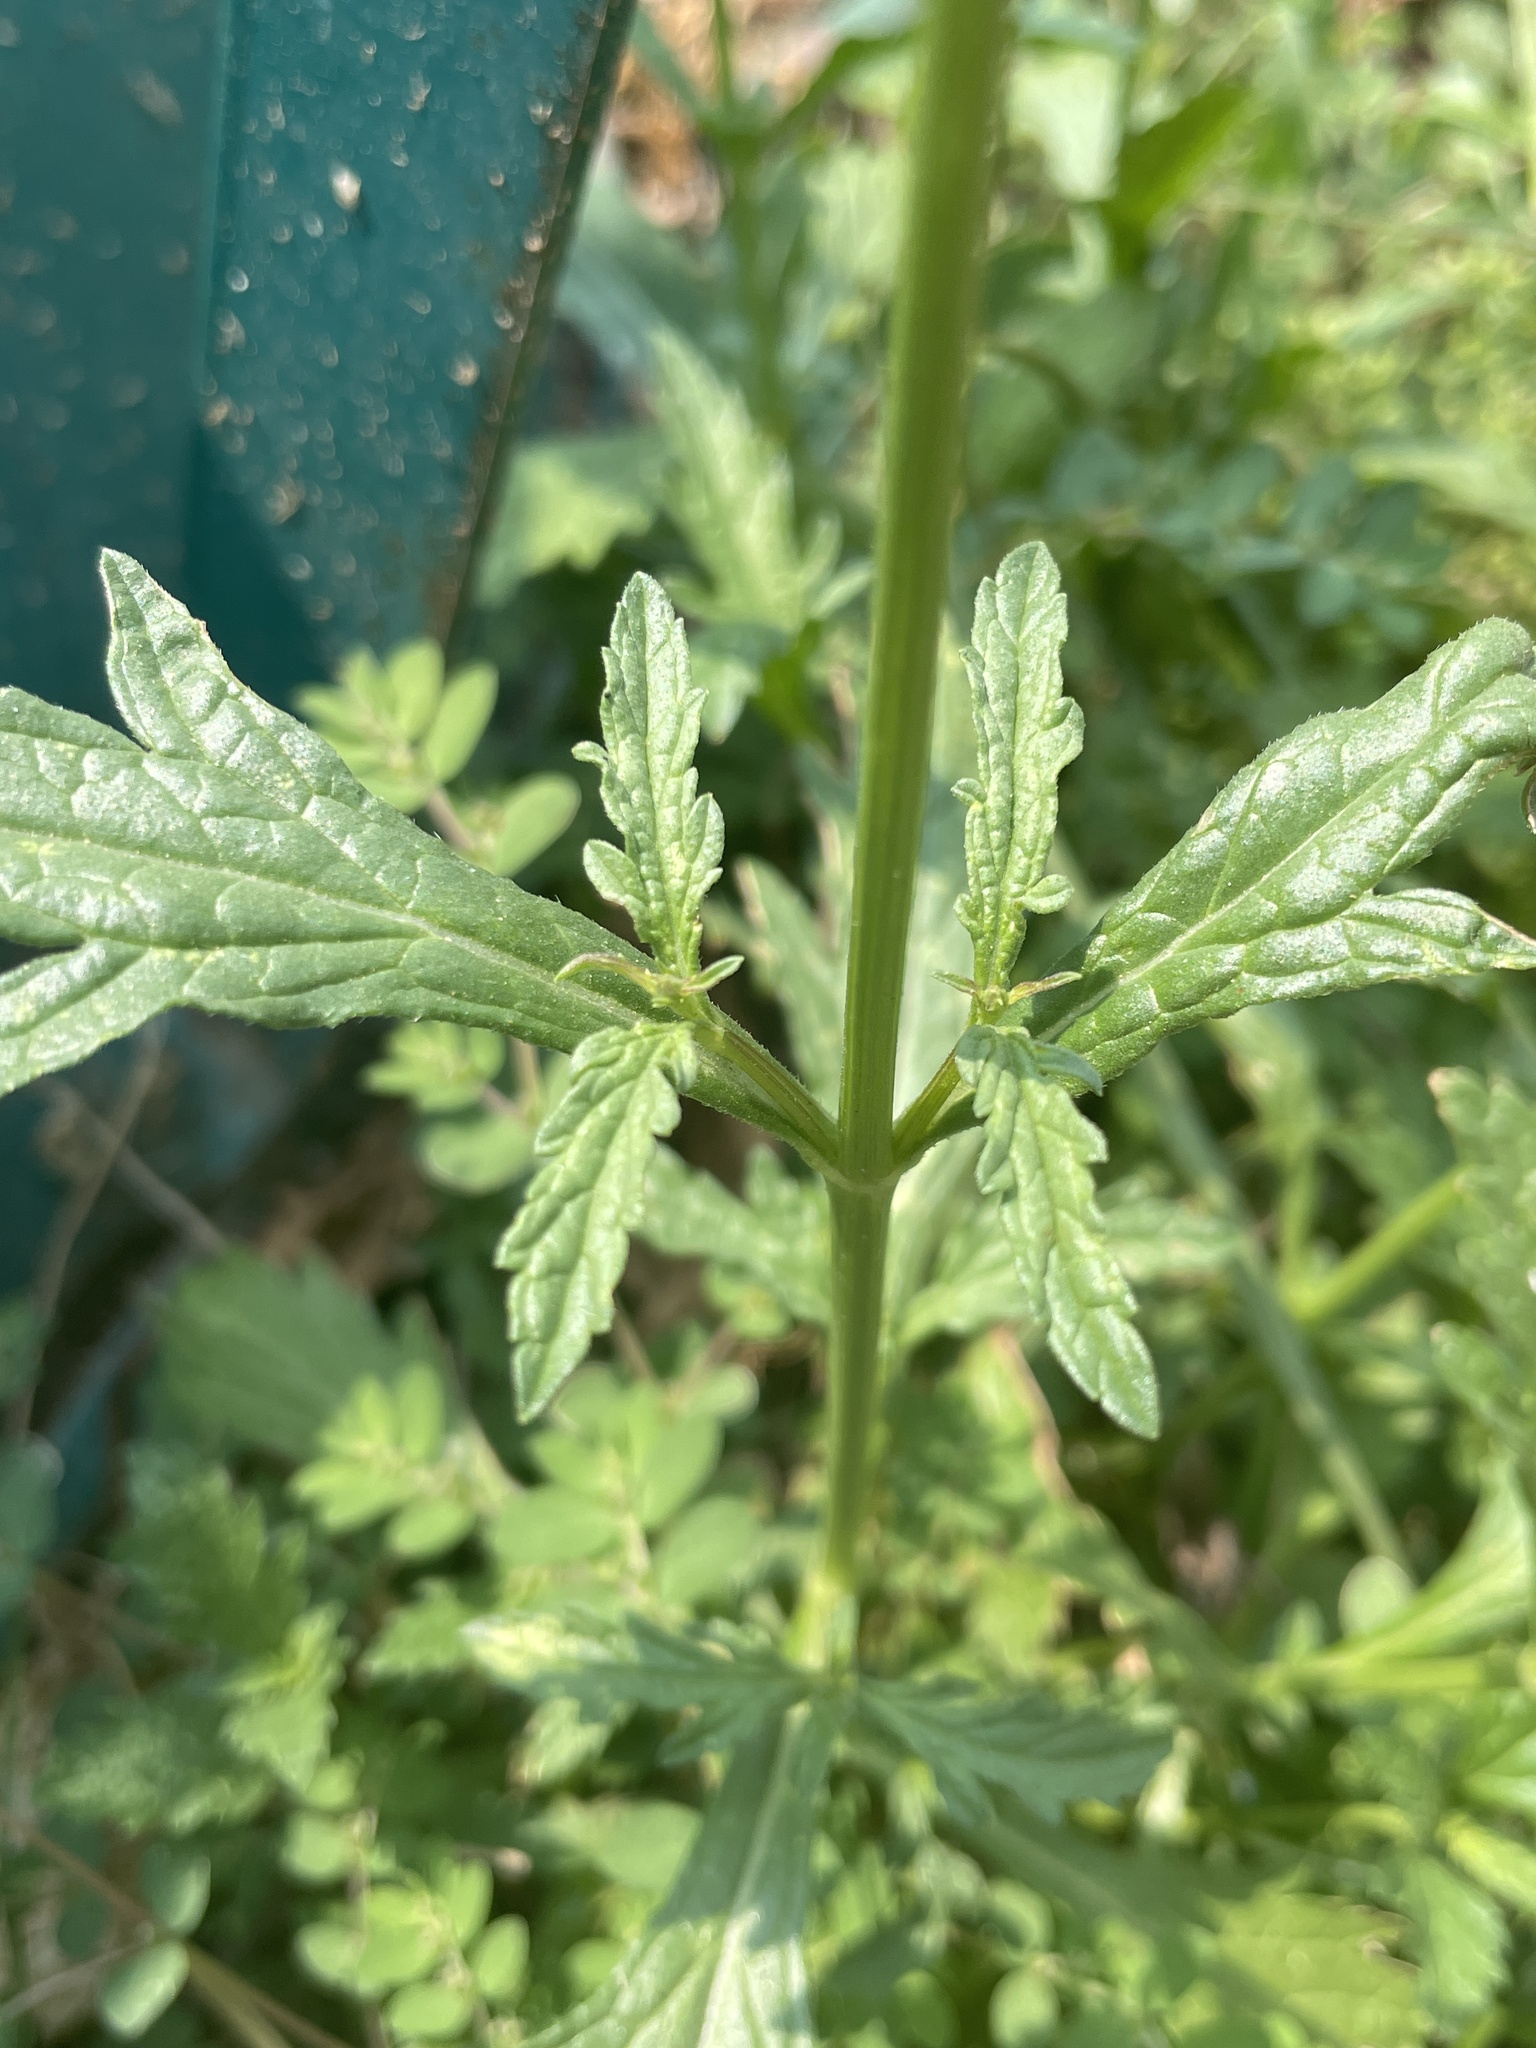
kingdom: Plantae
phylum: Tracheophyta
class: Magnoliopsida
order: Lamiales
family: Verbenaceae
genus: Verbena
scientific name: Verbena officinalis
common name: Vervain
